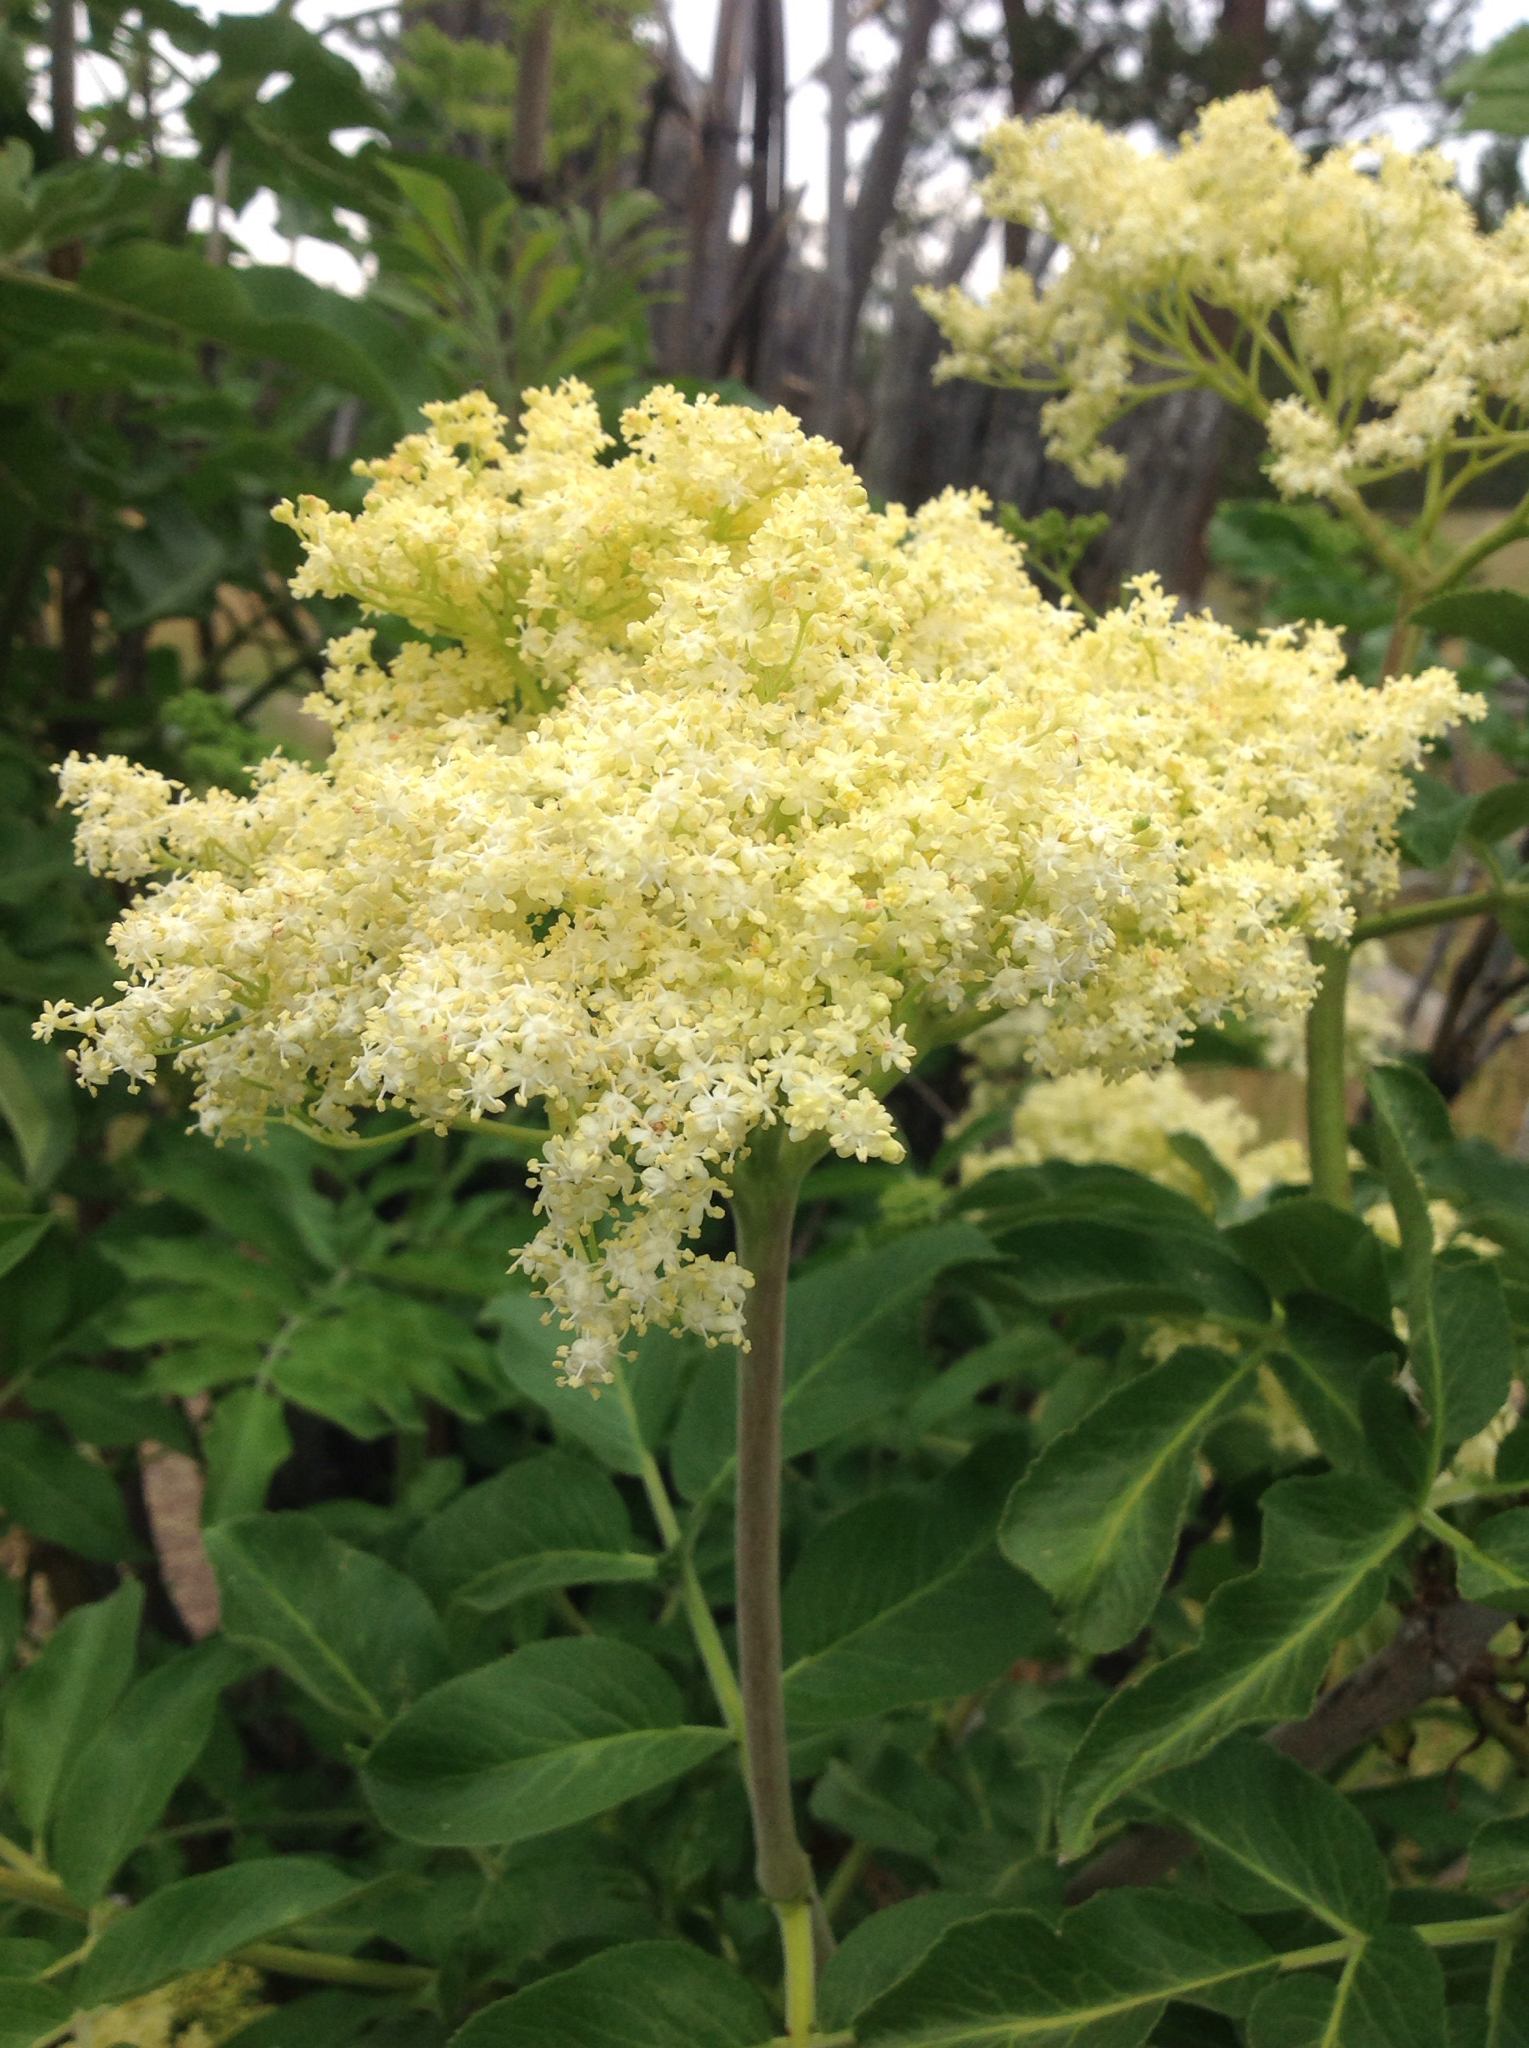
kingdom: Plantae
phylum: Tracheophyta
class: Magnoliopsida
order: Dipsacales
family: Viburnaceae
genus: Sambucus
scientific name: Sambucus cerulea
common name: Blue elder
